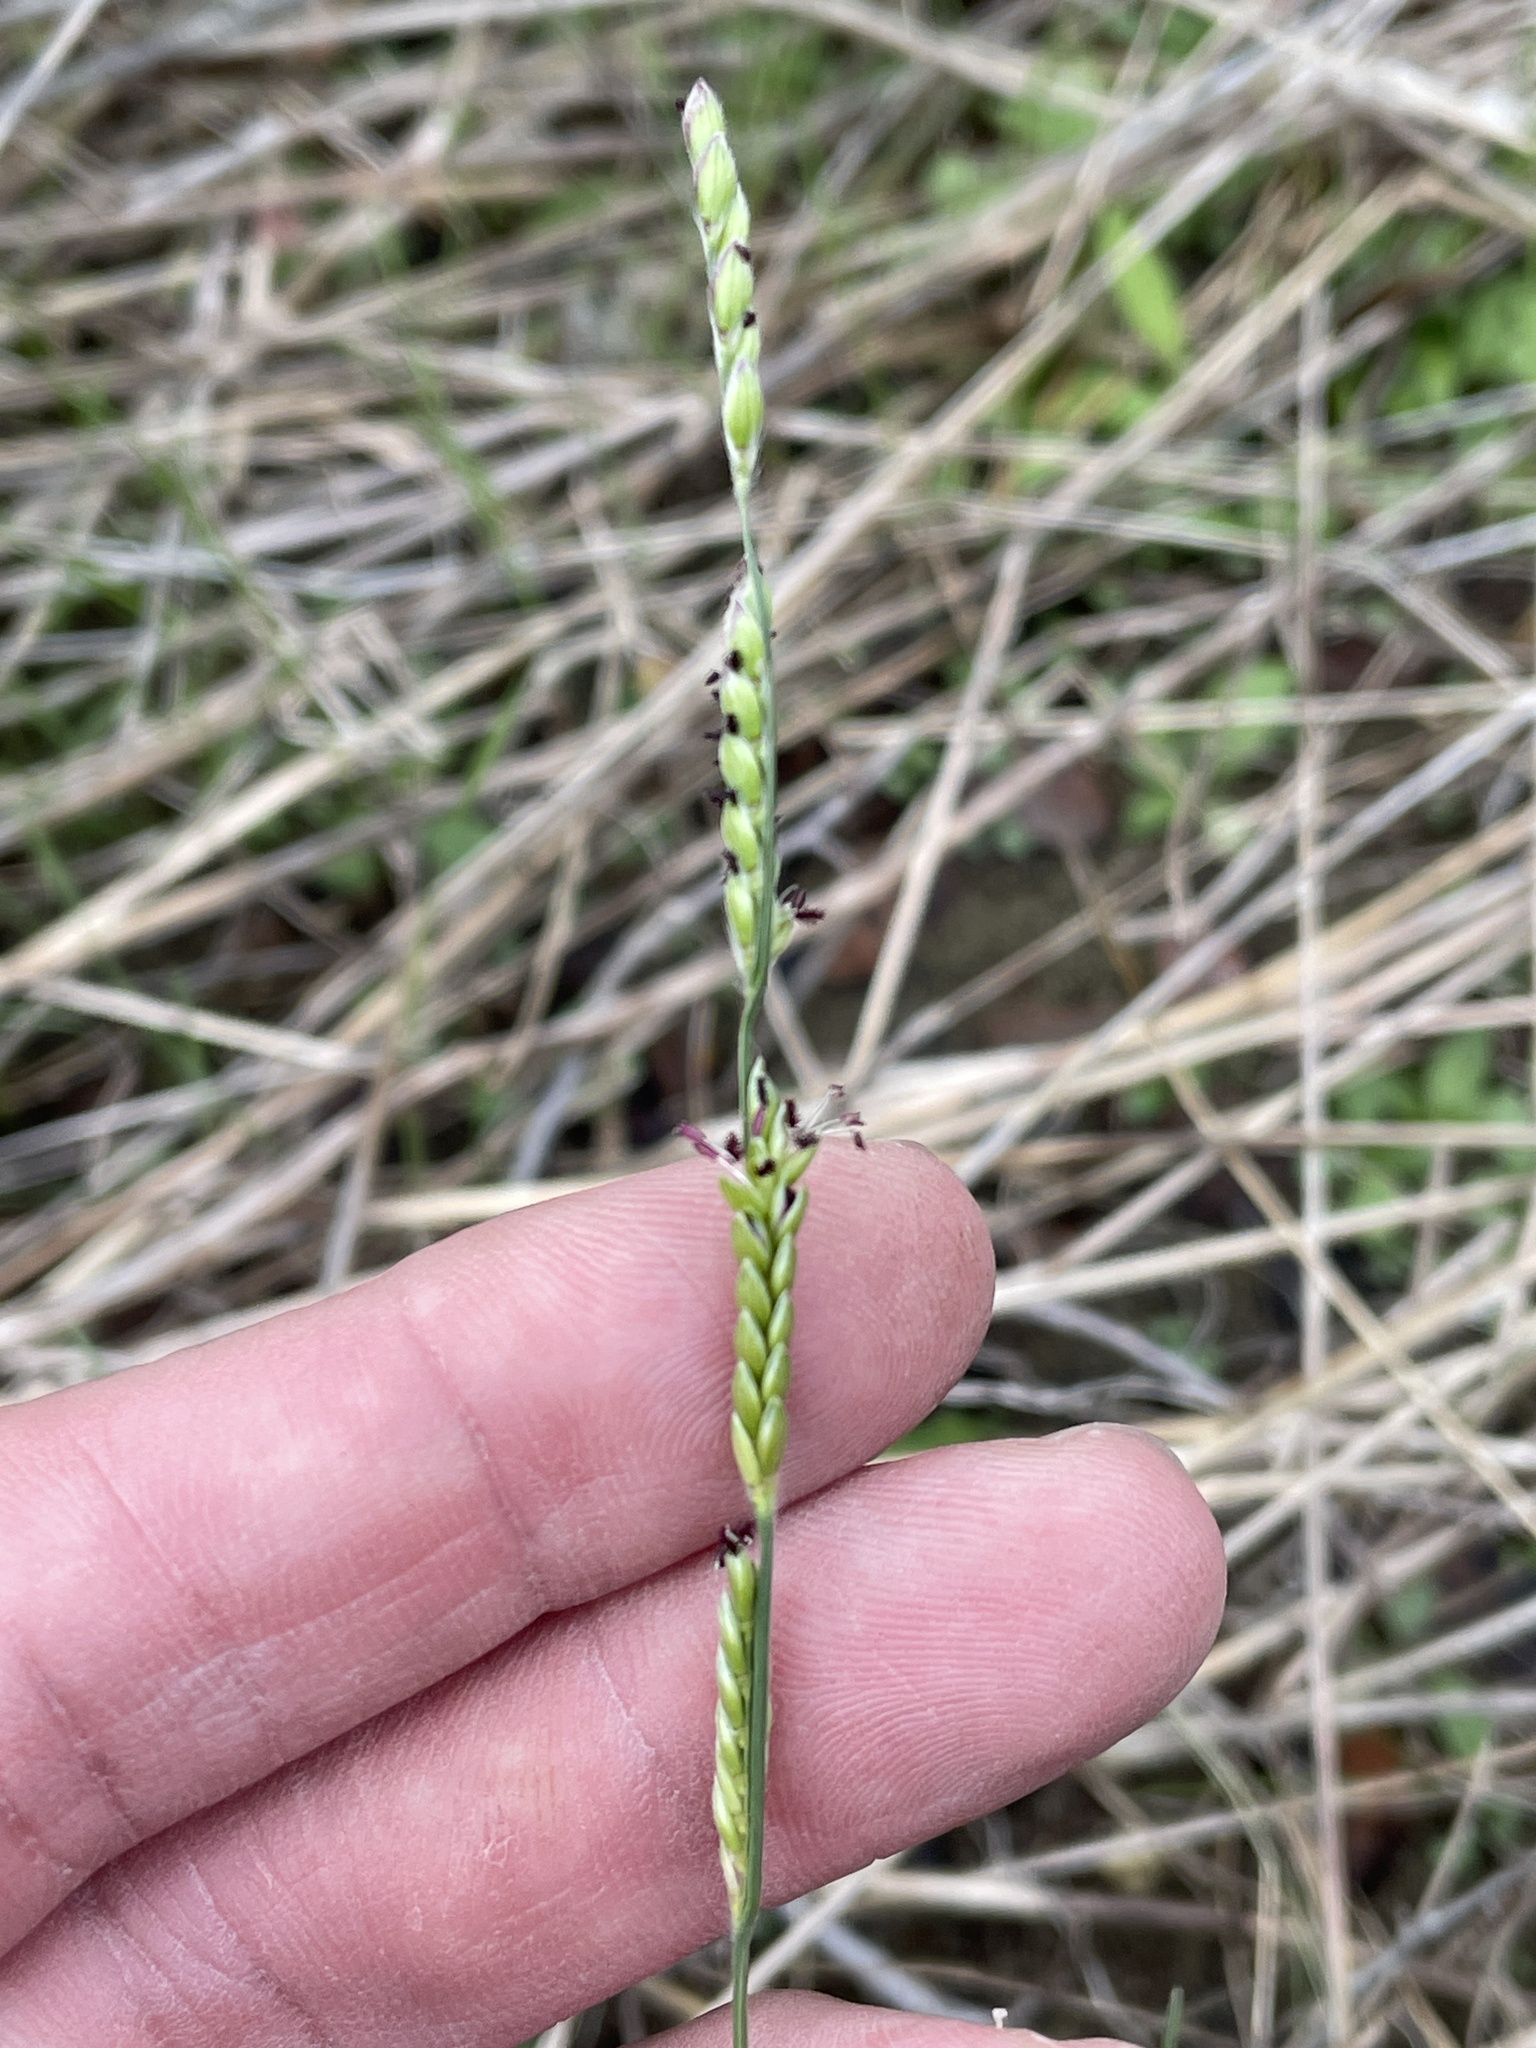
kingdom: Plantae
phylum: Tracheophyta
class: Liliopsida
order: Poales
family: Poaceae
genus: Eriochloa
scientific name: Eriochloa sericea
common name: Texas cup grass
